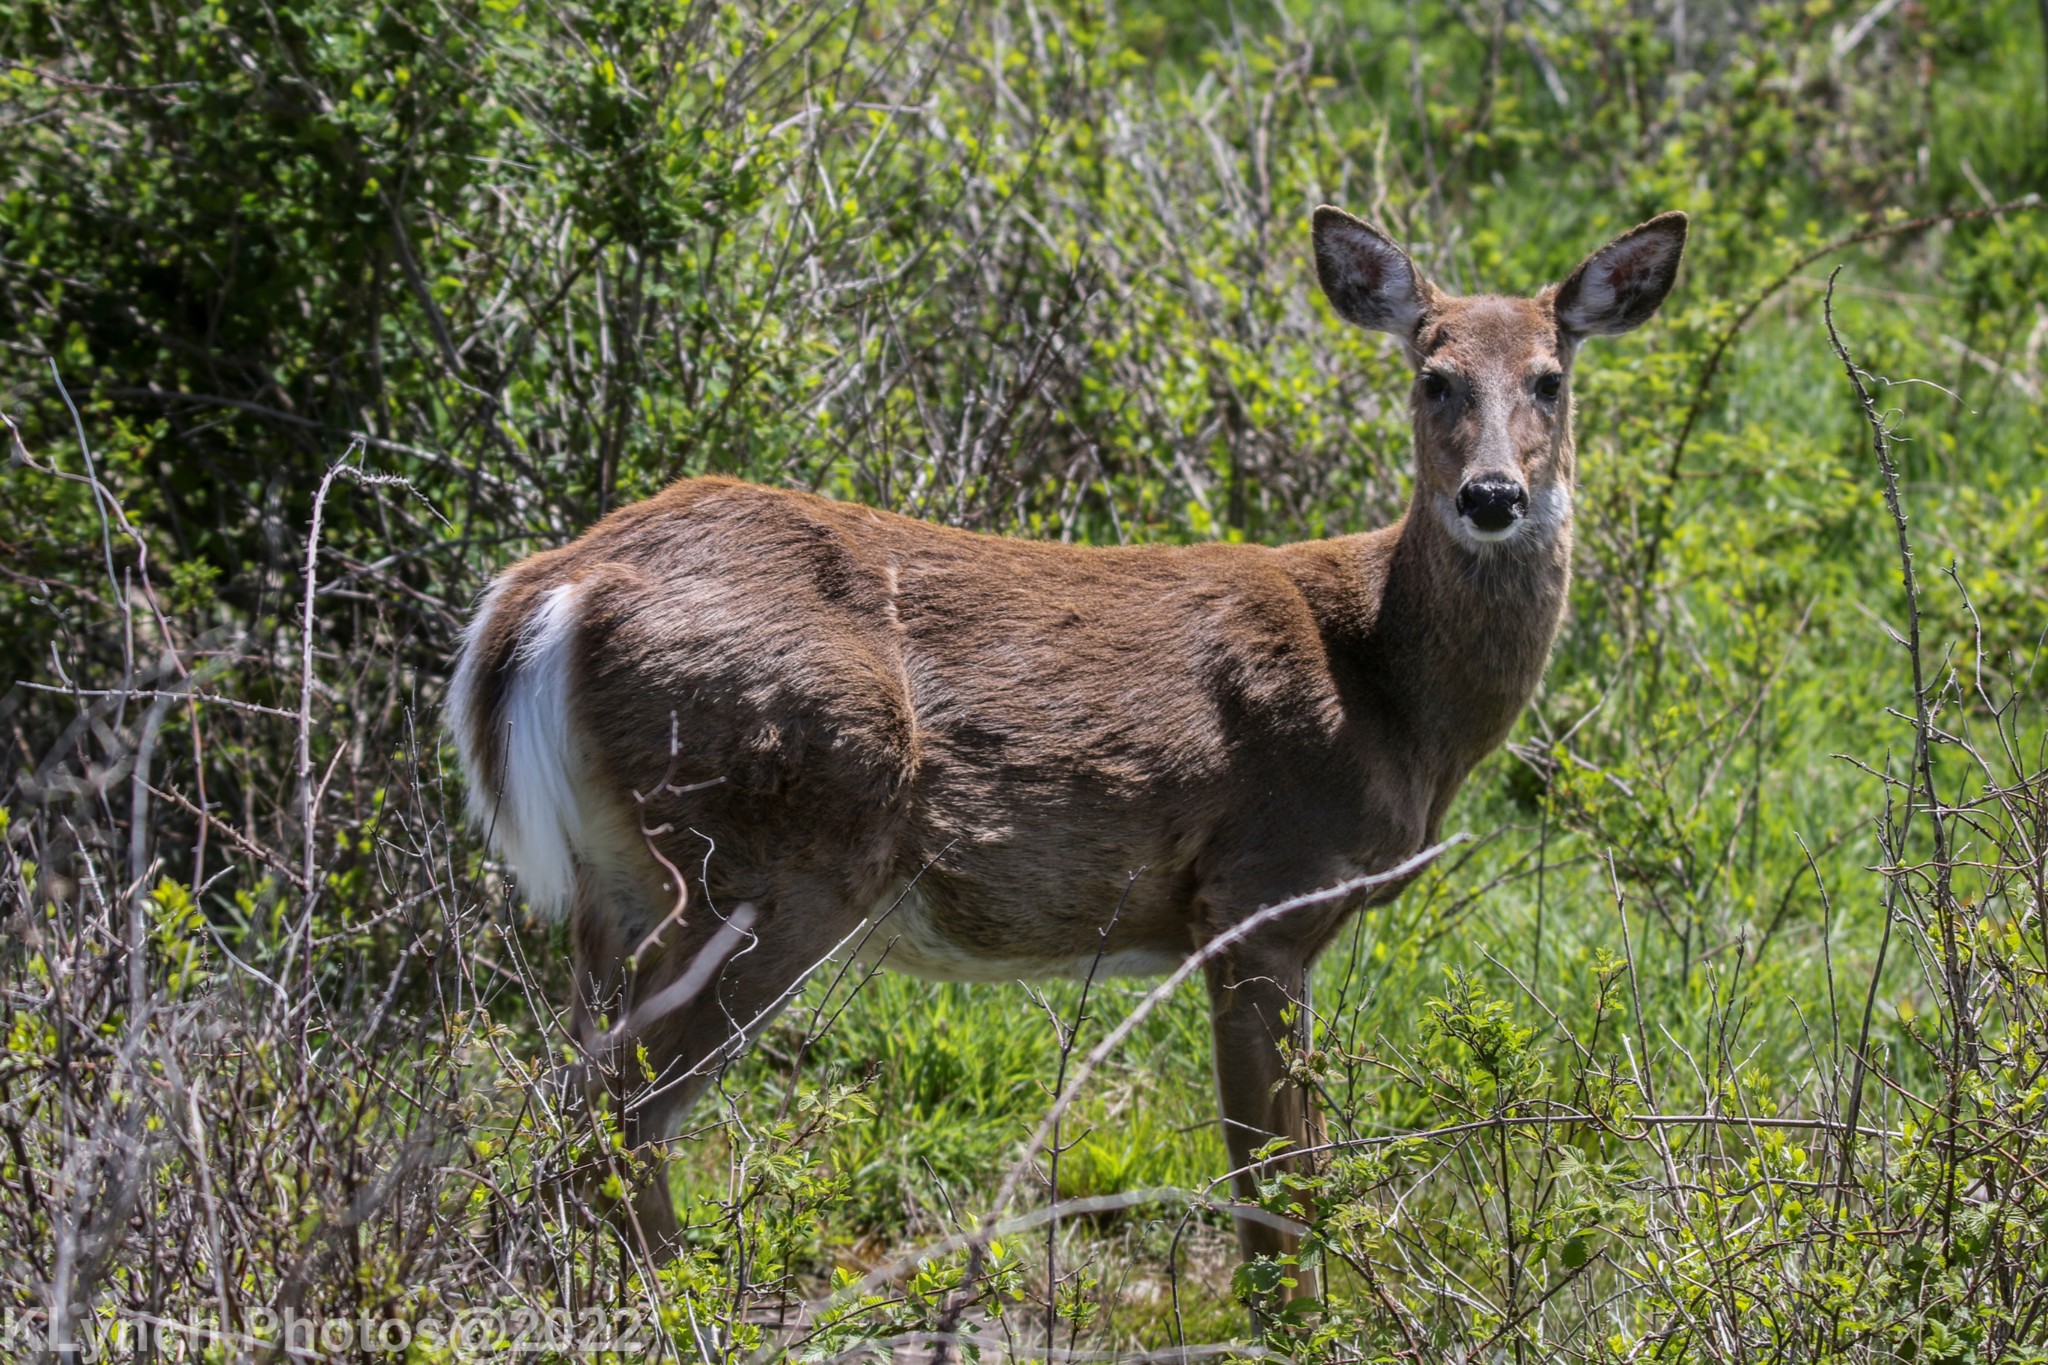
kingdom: Animalia
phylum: Chordata
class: Mammalia
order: Artiodactyla
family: Cervidae
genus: Odocoileus
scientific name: Odocoileus virginianus
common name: White-tailed deer
